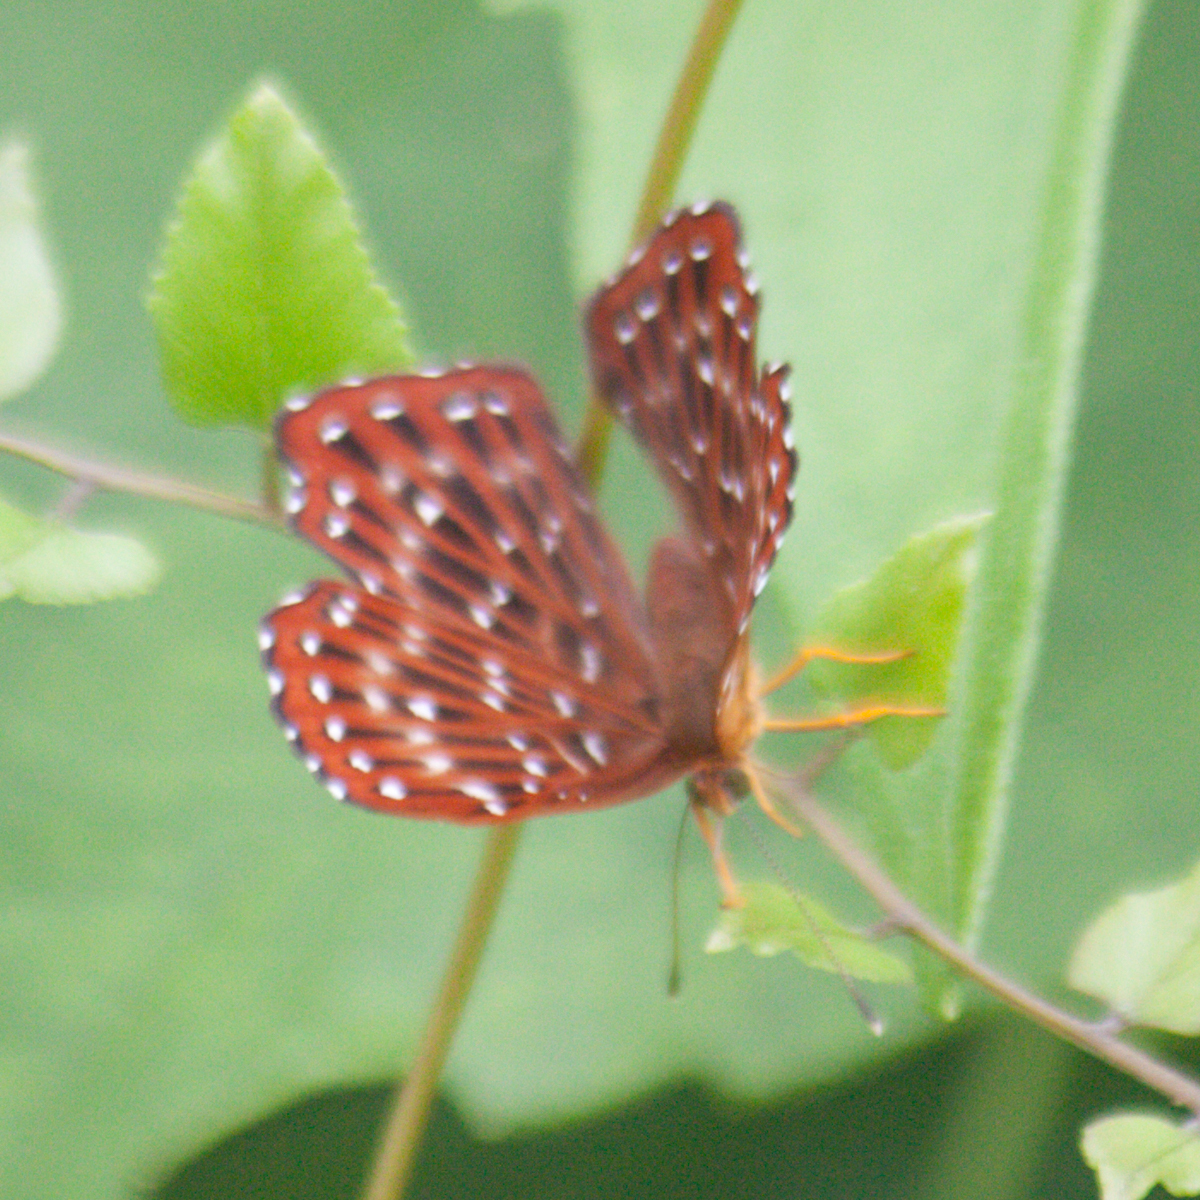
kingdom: Animalia
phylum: Arthropoda
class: Insecta
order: Lepidoptera
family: Riodinidae
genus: Zemeros
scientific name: Zemeros flegyas
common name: Punchinello
